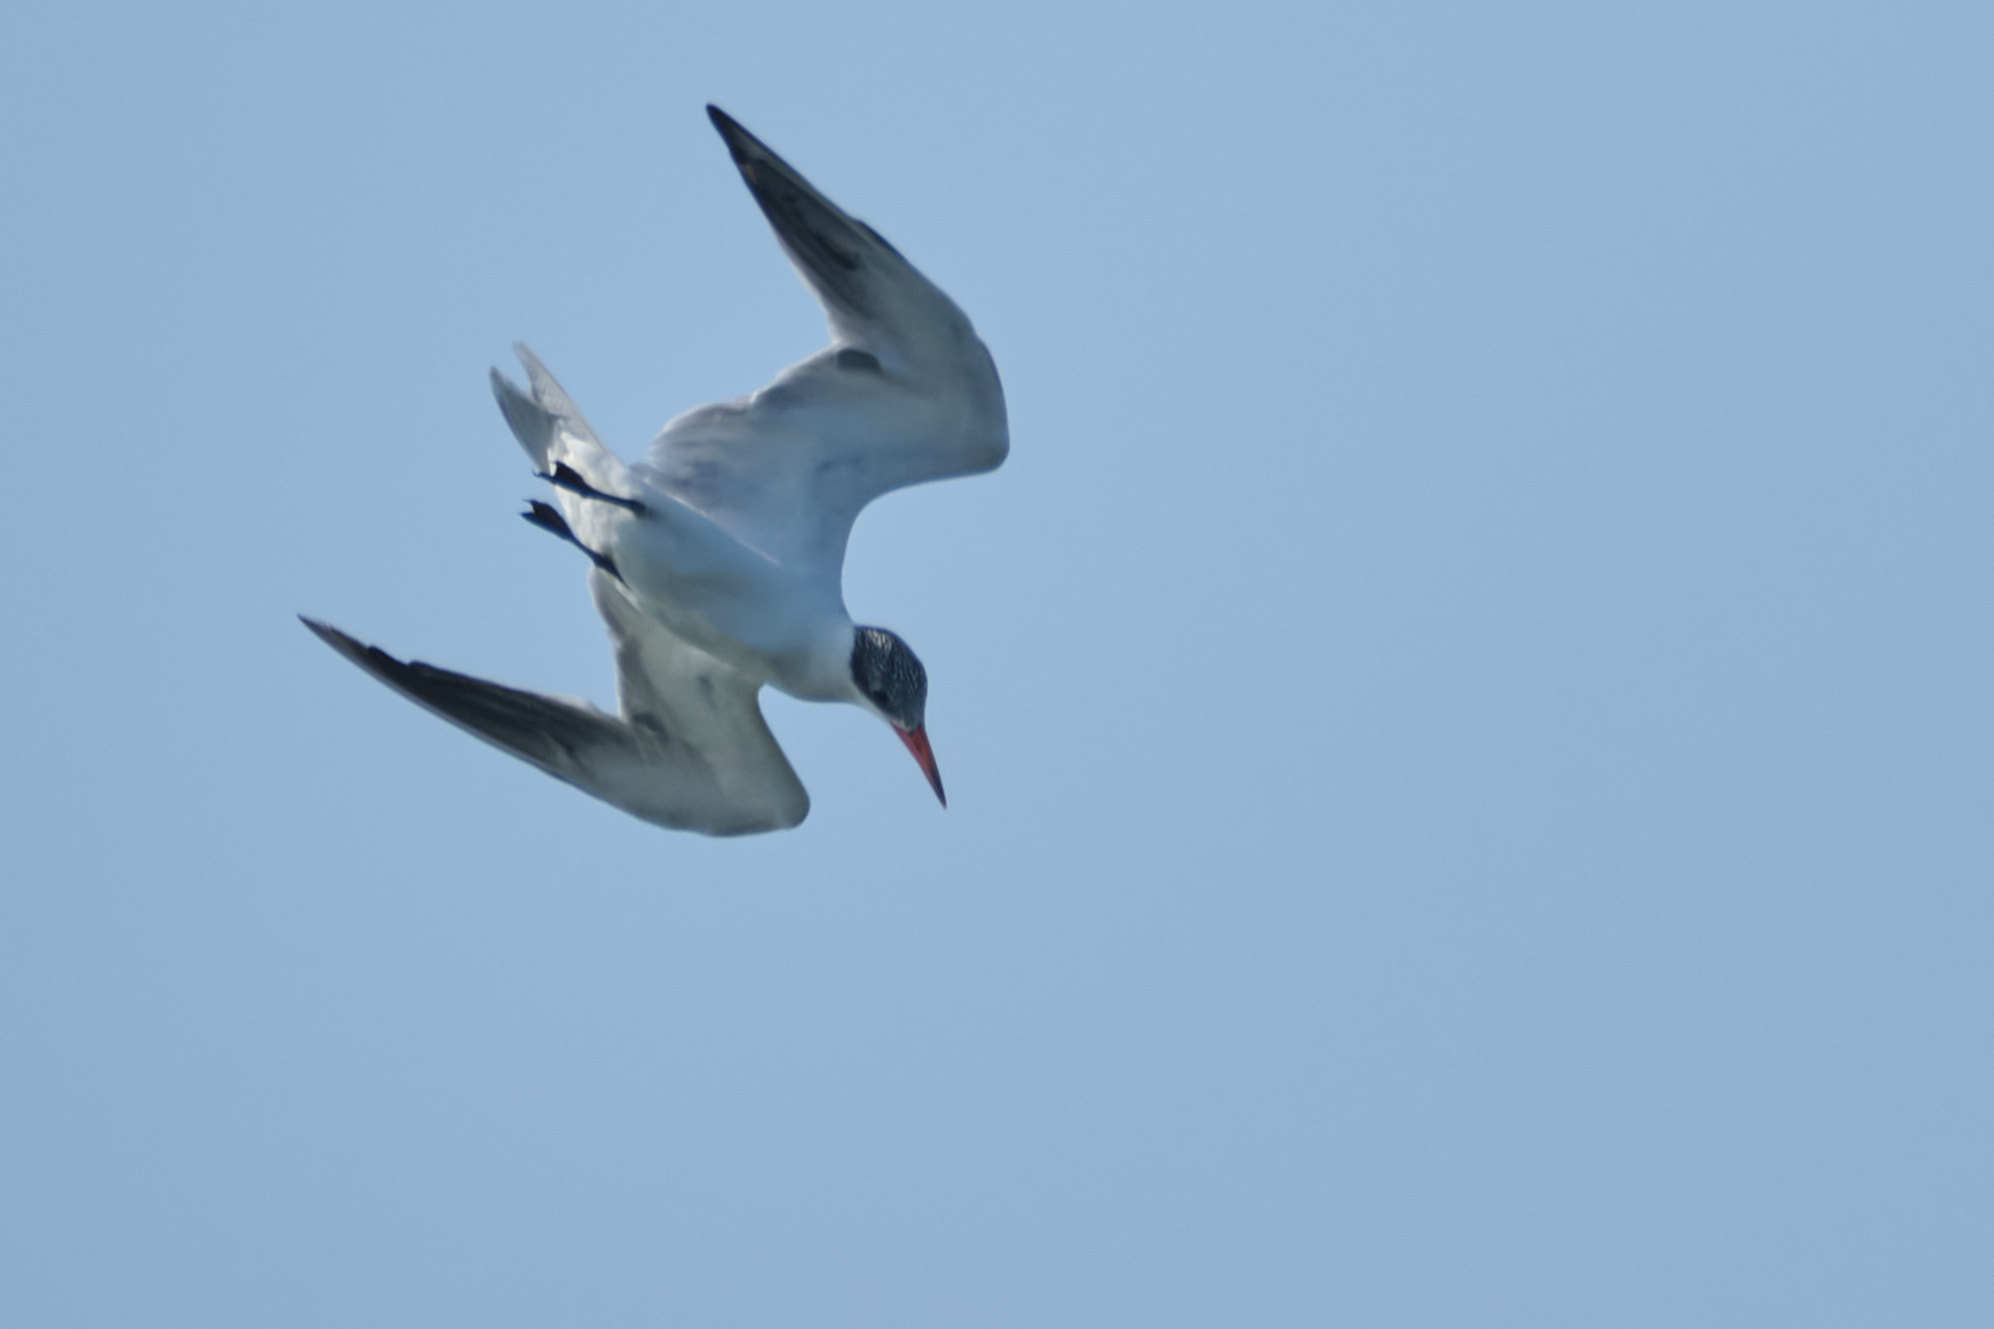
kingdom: Animalia
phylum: Chordata
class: Aves
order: Charadriiformes
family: Laridae
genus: Hydroprogne
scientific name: Hydroprogne caspia
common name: Caspian tern
